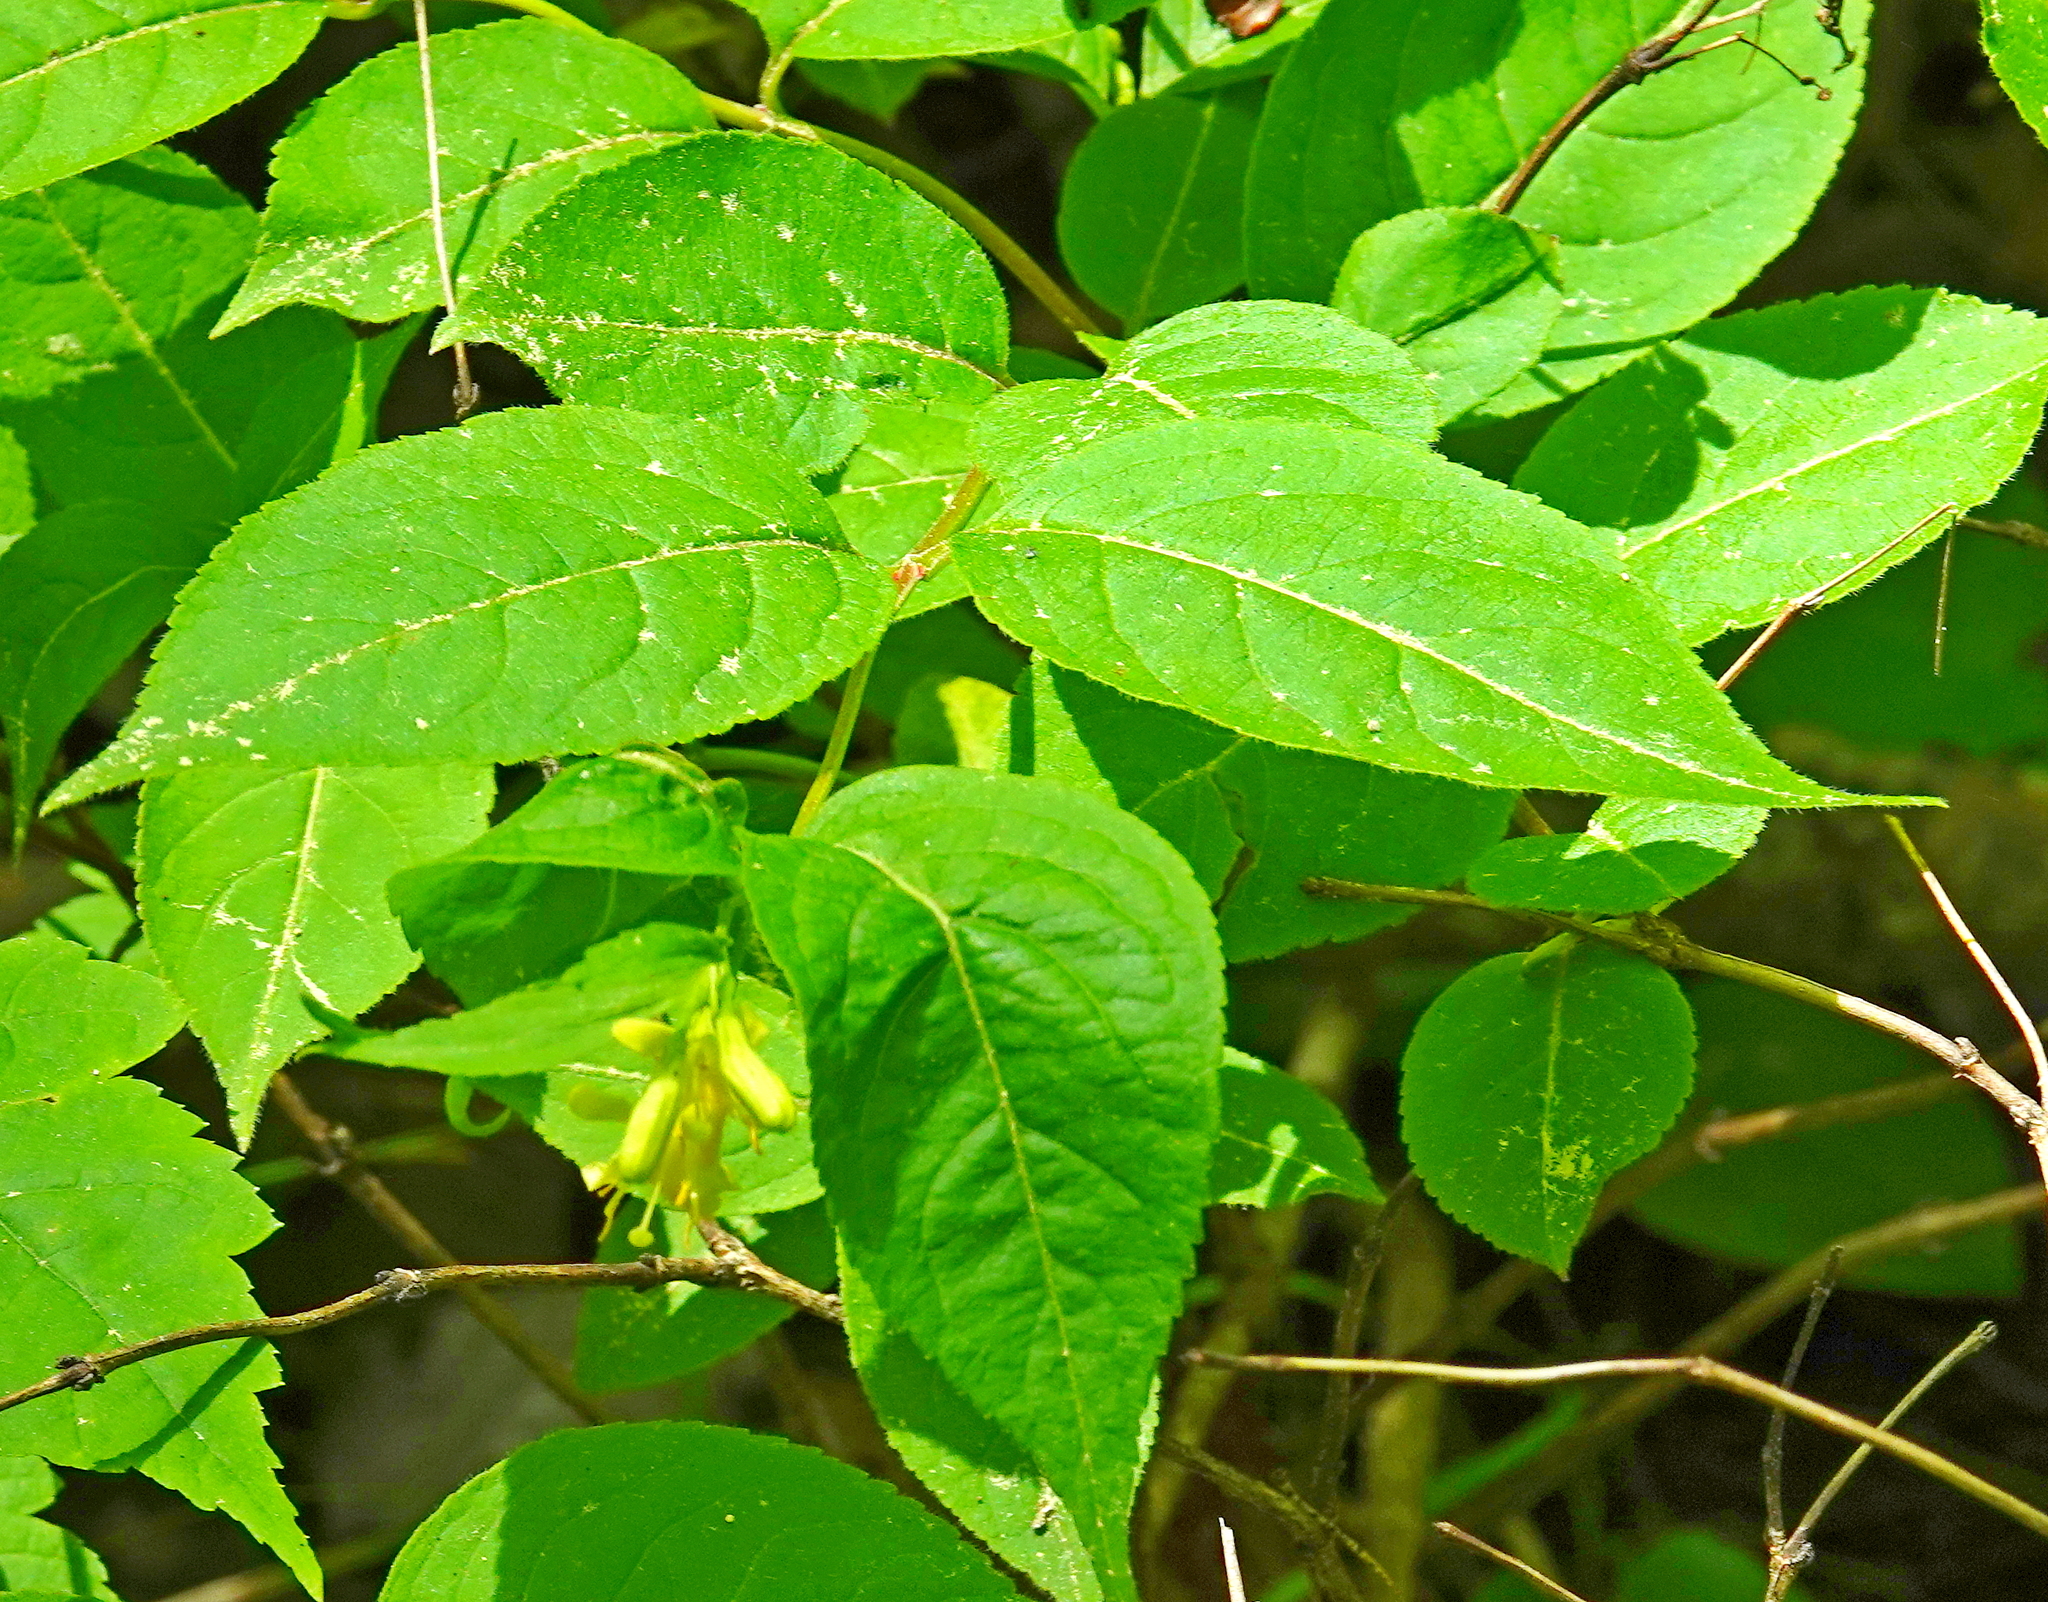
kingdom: Plantae
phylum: Tracheophyta
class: Magnoliopsida
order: Dipsacales
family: Caprifoliaceae
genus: Diervilla
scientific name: Diervilla lonicera
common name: Bush-honeysuckle
